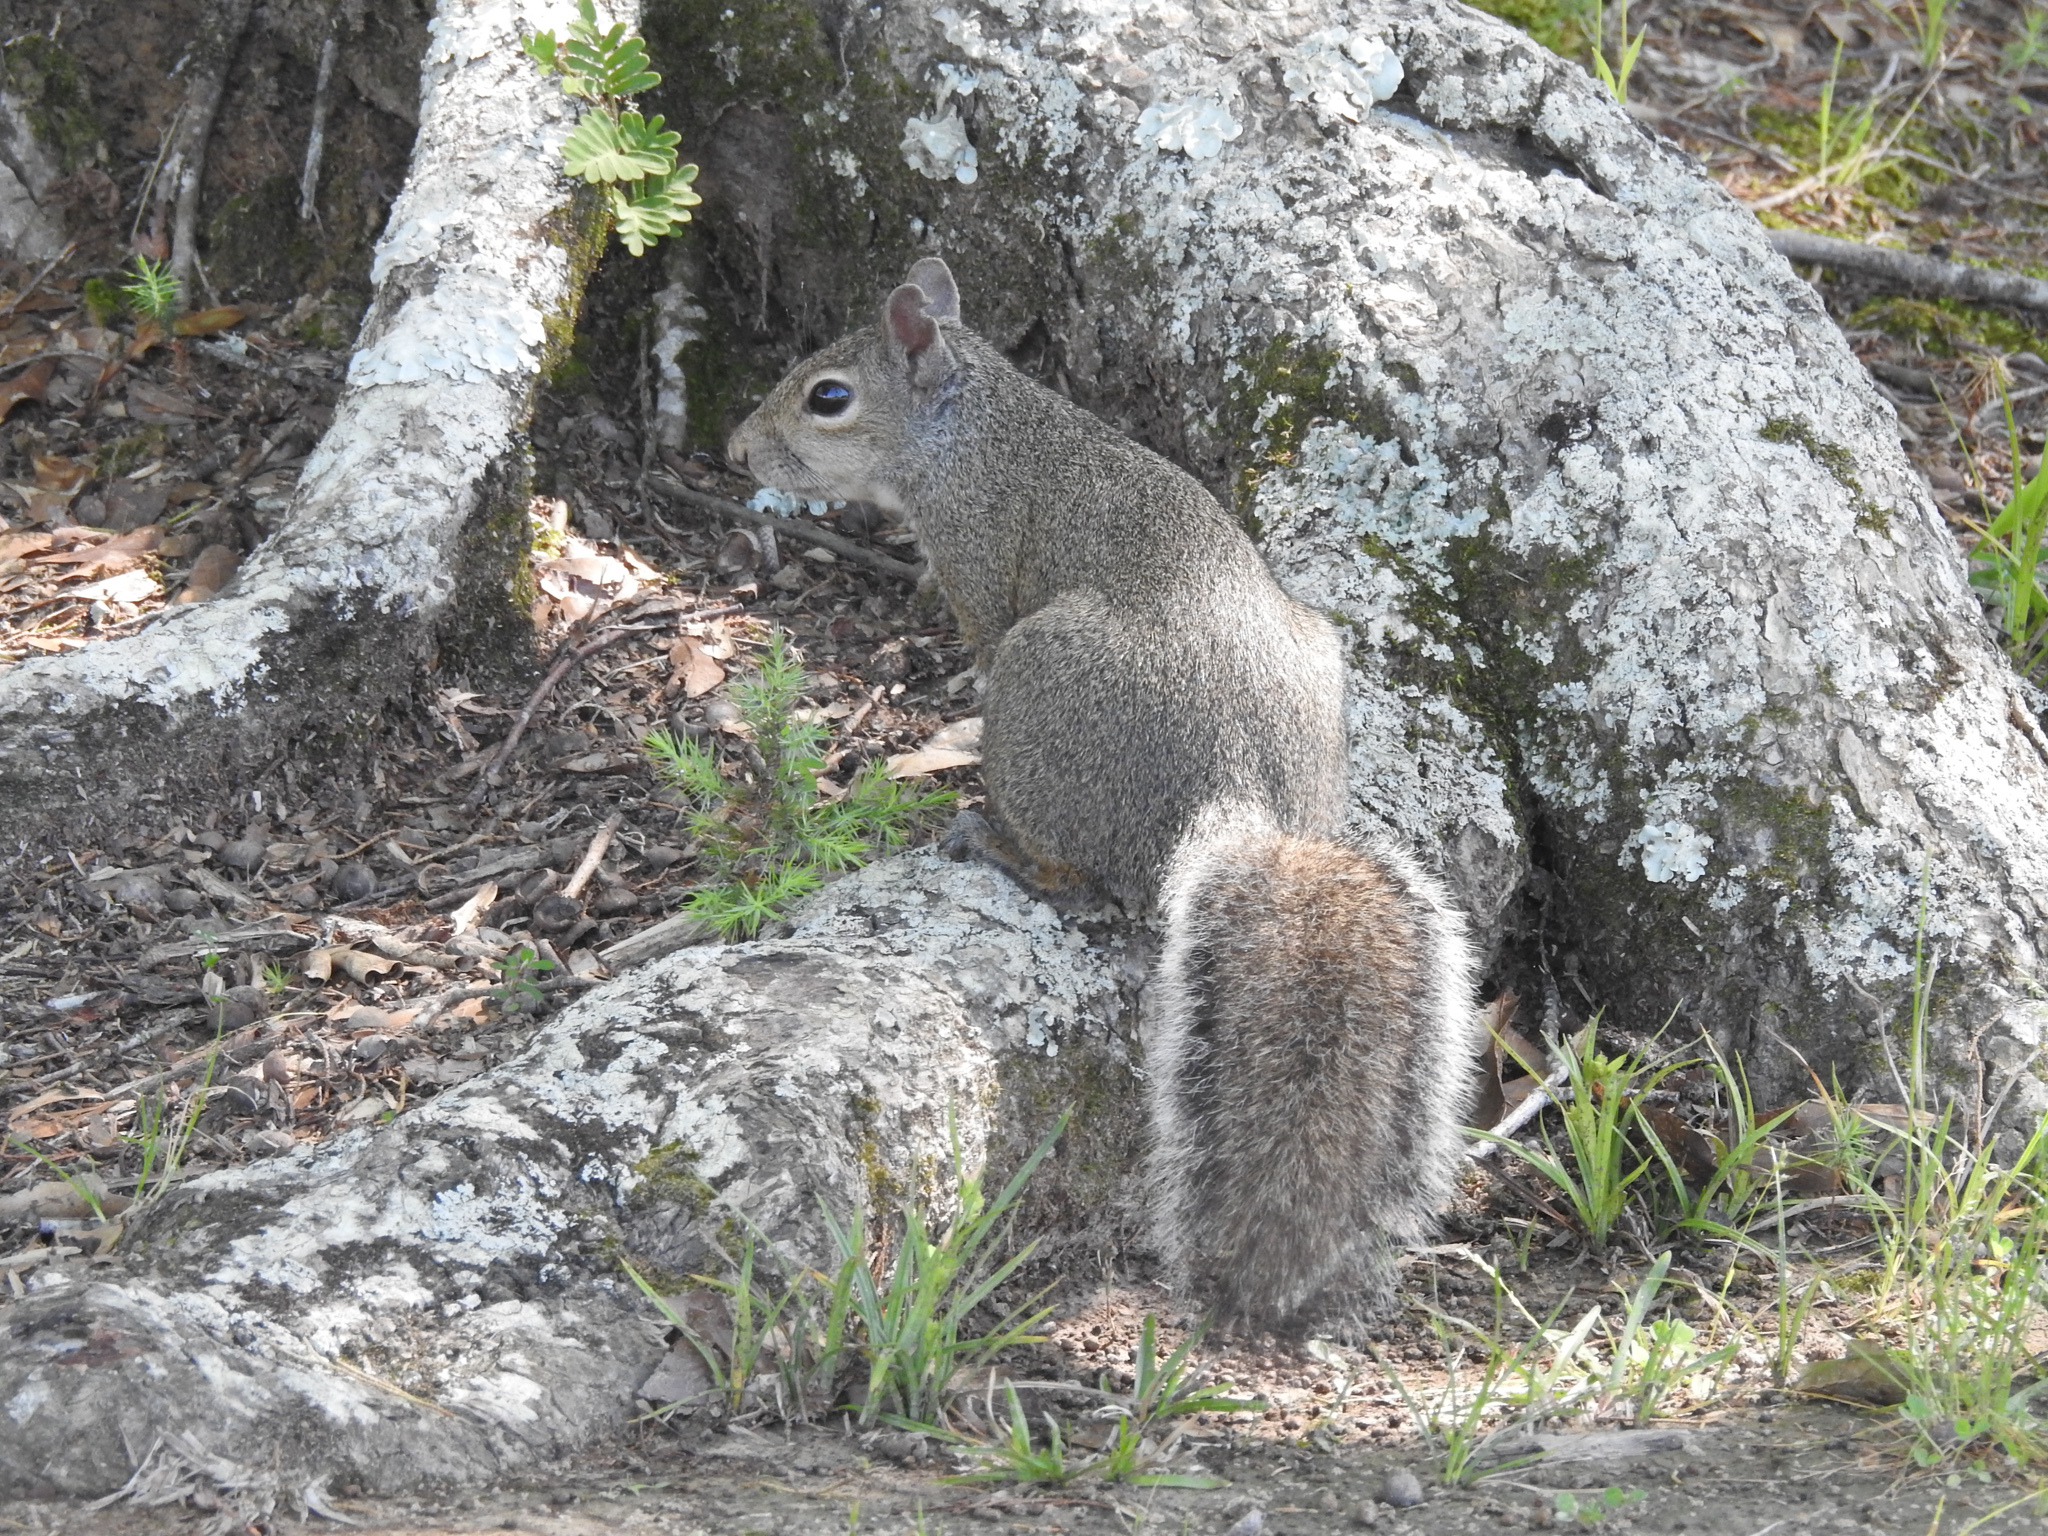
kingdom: Animalia
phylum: Chordata
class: Mammalia
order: Rodentia
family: Sciuridae
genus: Sciurus
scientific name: Sciurus carolinensis
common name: Eastern gray squirrel
